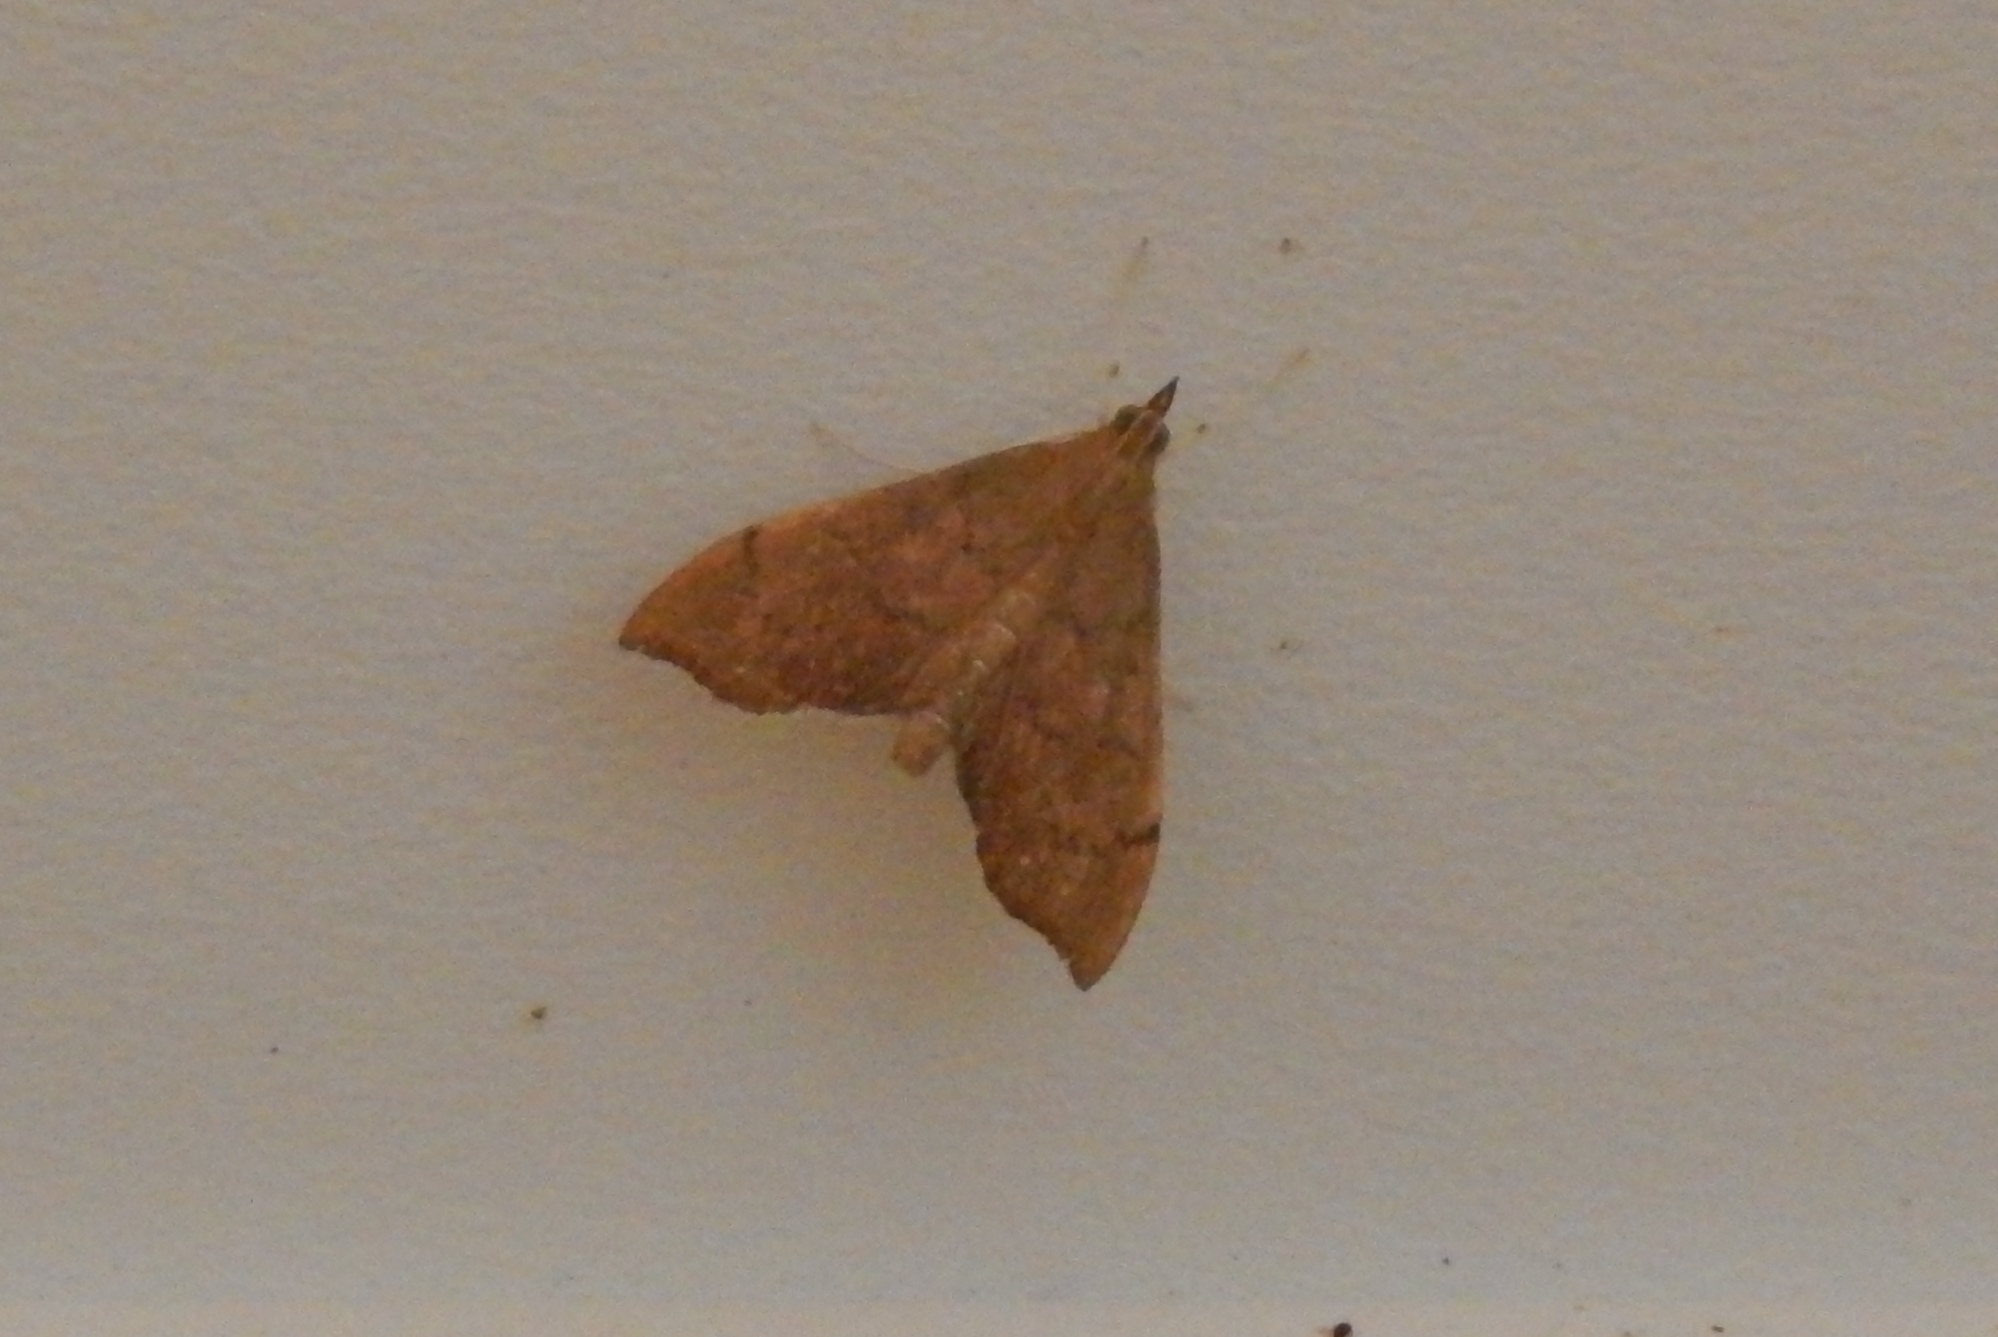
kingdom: Animalia
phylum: Arthropoda
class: Insecta
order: Lepidoptera
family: Crambidae
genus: Sericoplaga
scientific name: Sericoplaga externalis
